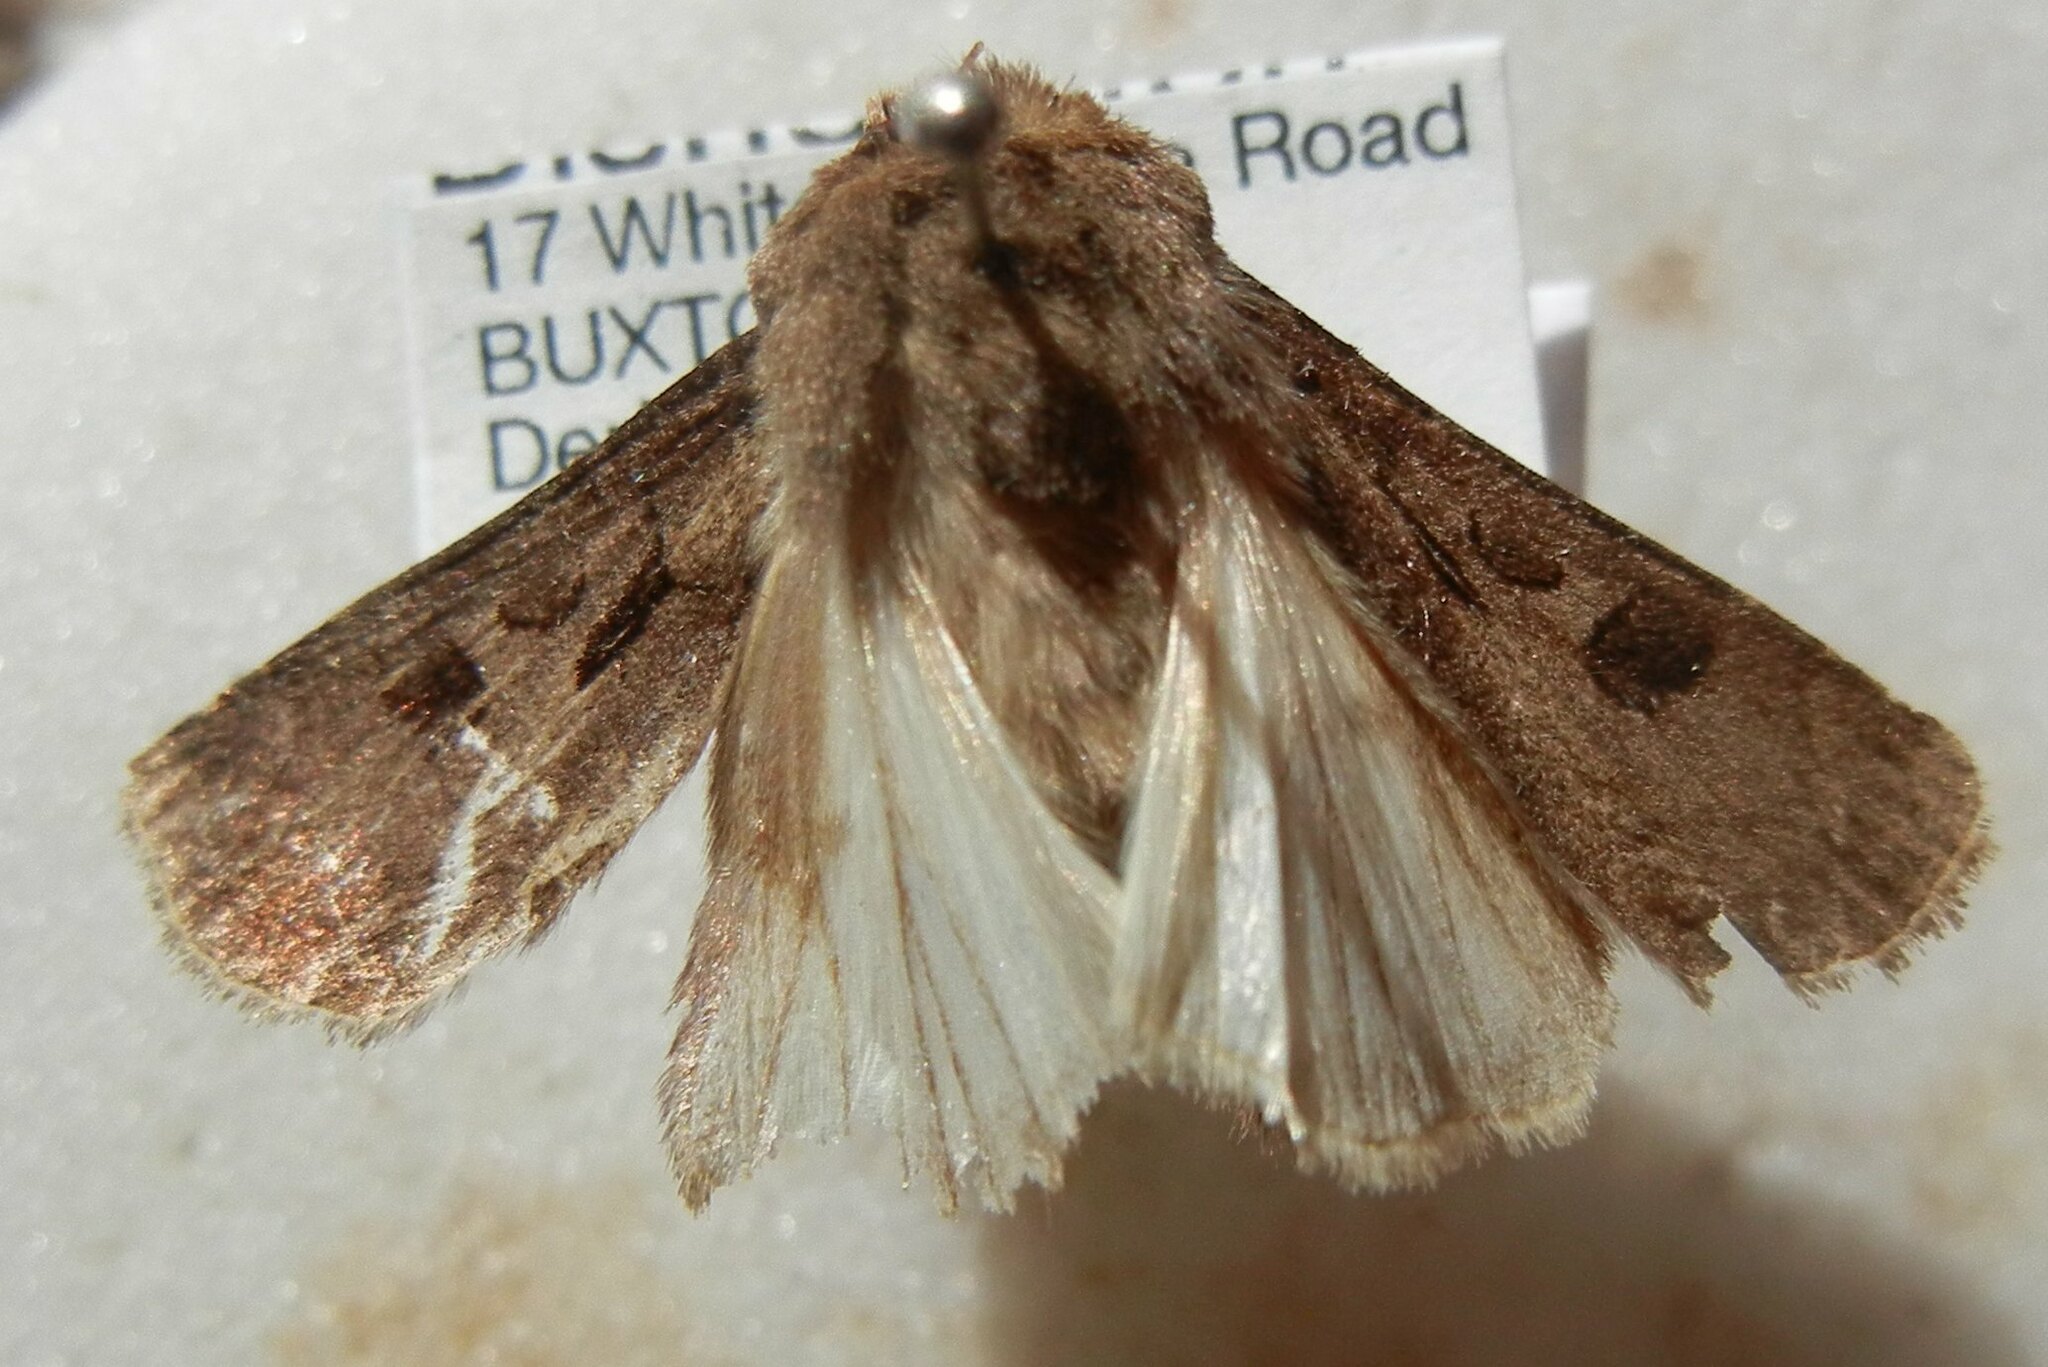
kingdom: Animalia
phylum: Arthropoda
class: Insecta
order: Lepidoptera
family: Noctuidae
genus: Agrotis
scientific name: Agrotis exclamationis
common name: Heart and dart
